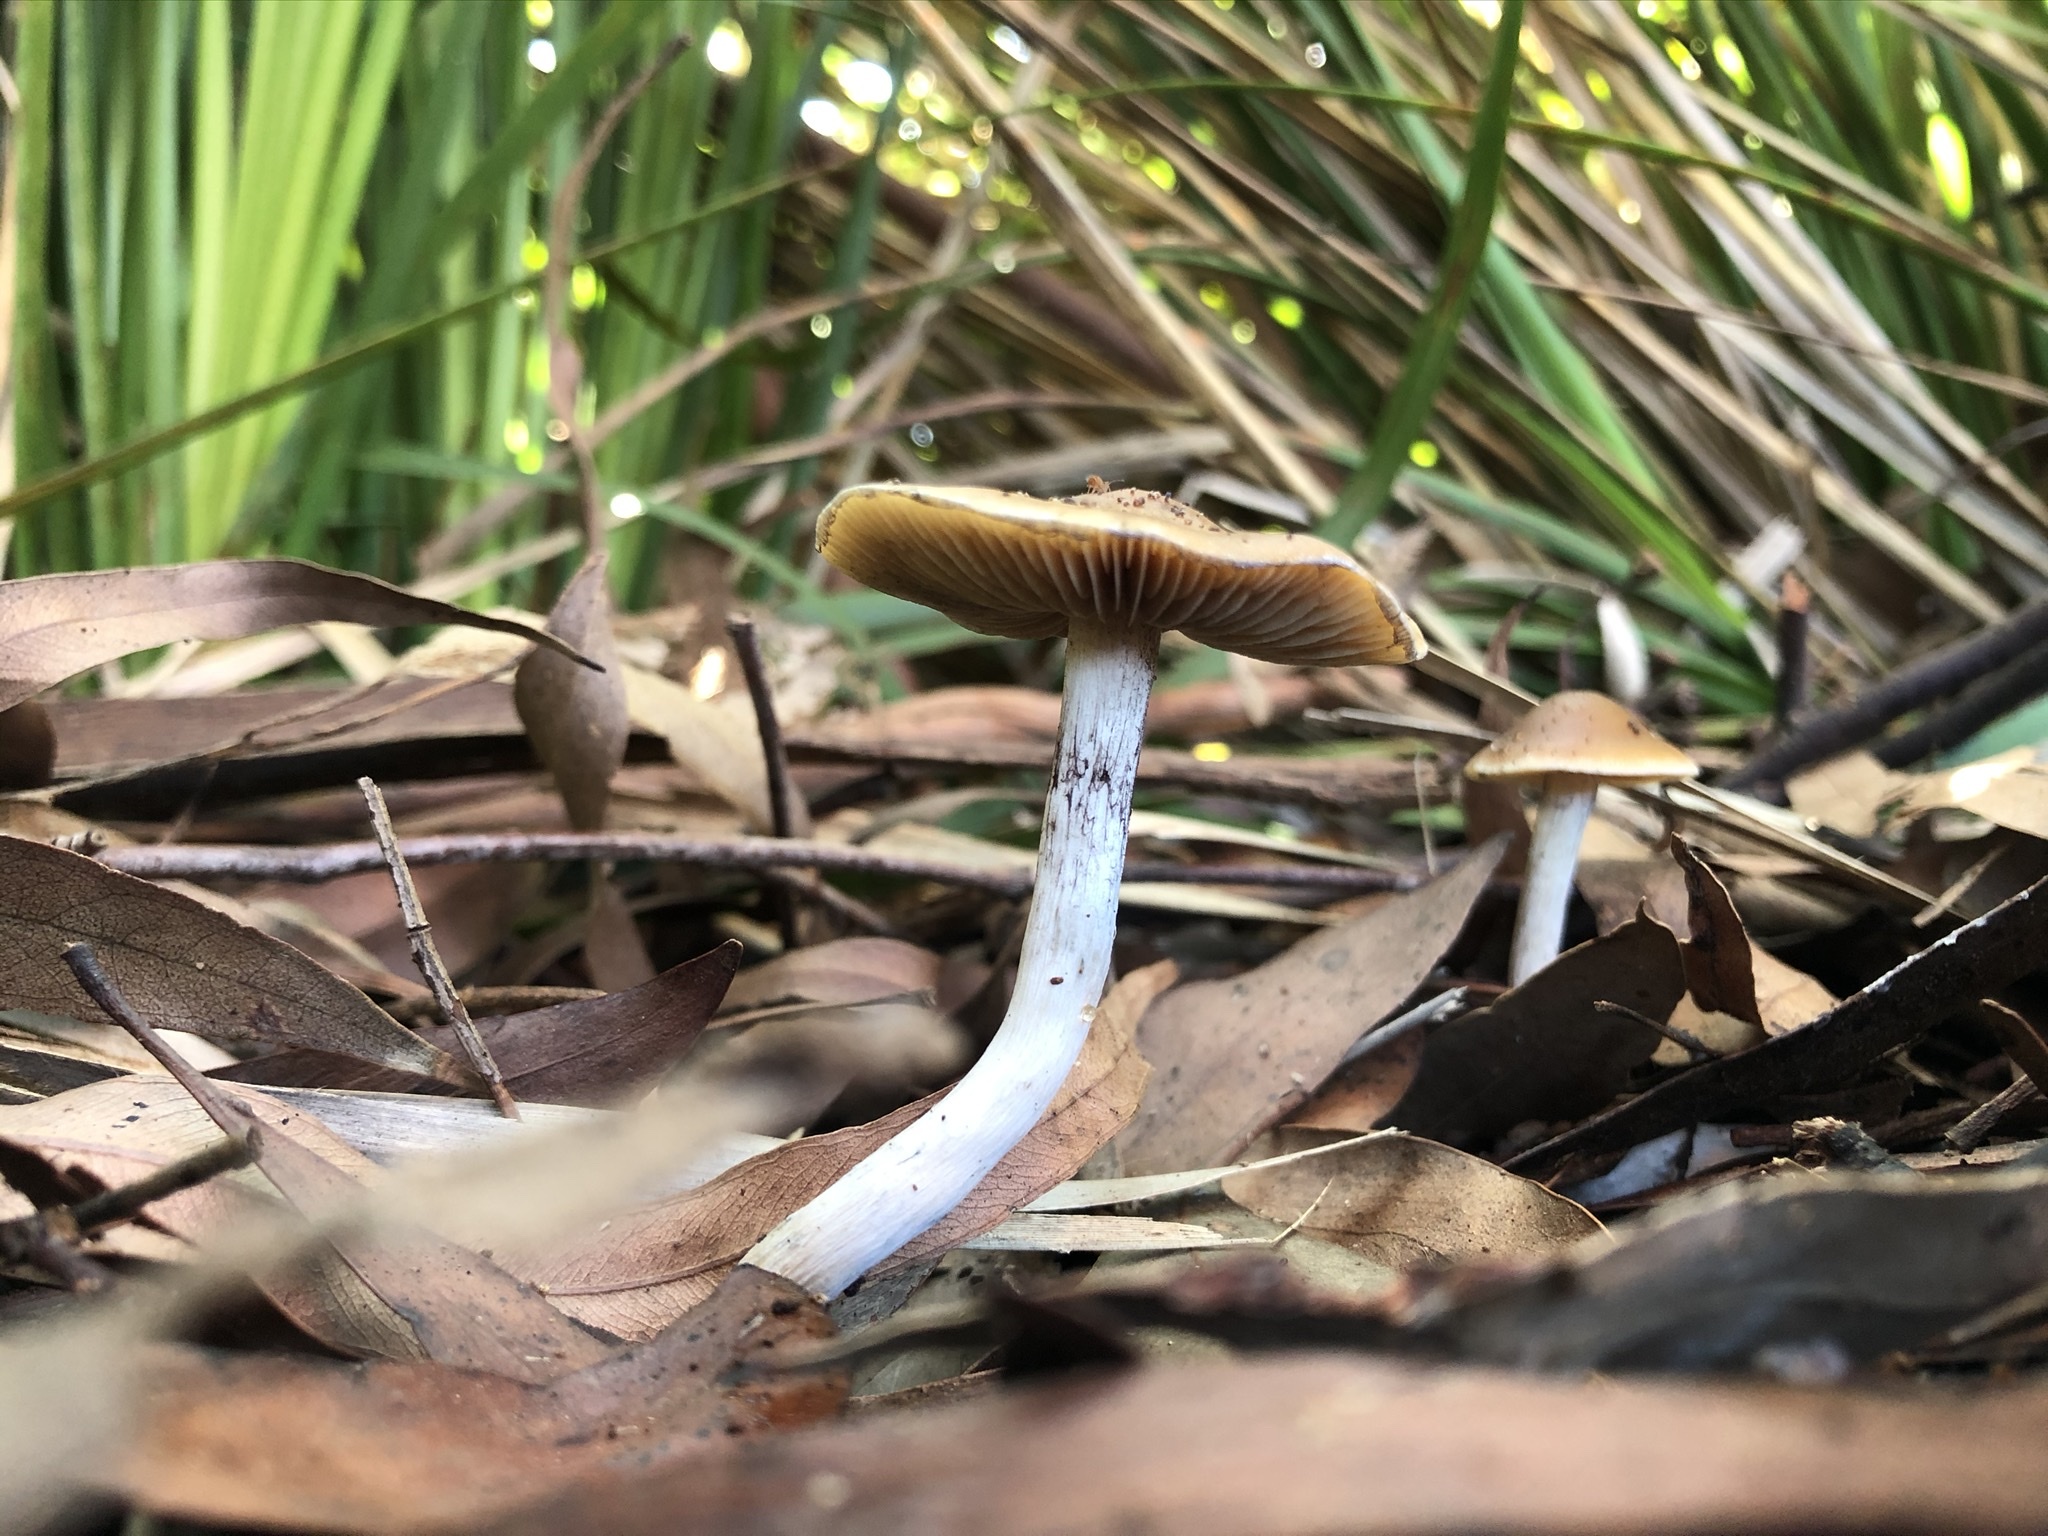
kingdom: Fungi
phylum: Basidiomycota
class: Agaricomycetes
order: Agaricales
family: Hymenogastraceae
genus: Psilocybe
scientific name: Psilocybe subaeruginosa
